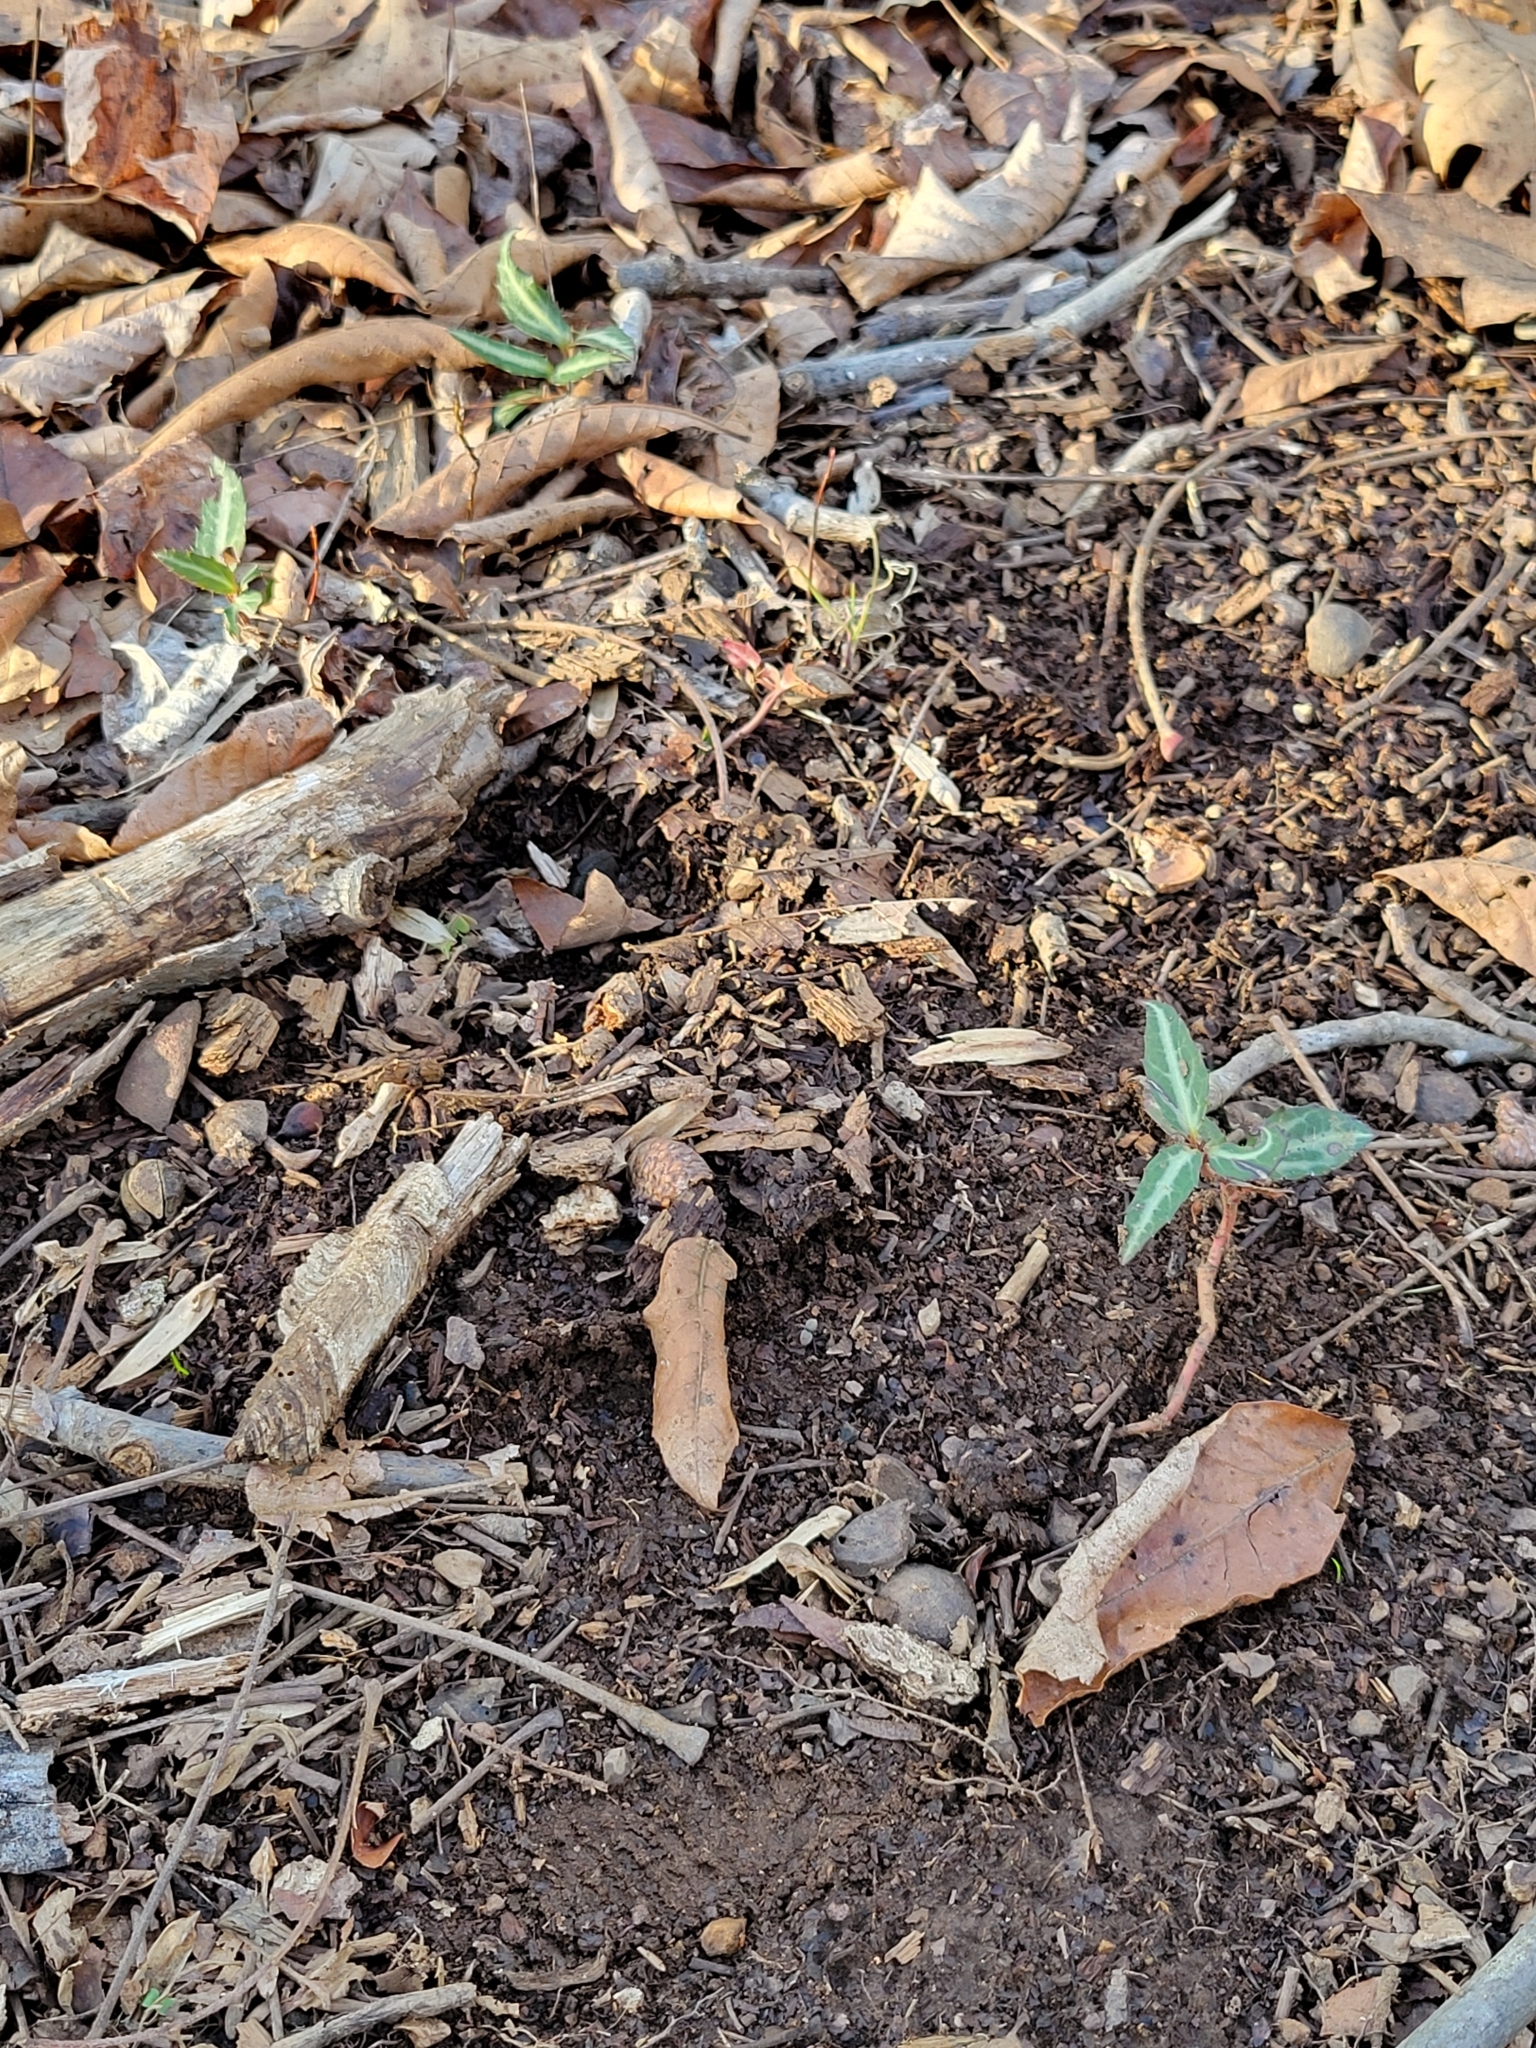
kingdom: Plantae
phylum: Tracheophyta
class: Magnoliopsida
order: Ericales
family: Ericaceae
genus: Chimaphila
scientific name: Chimaphila maculata
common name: Spotted pipsissewa
